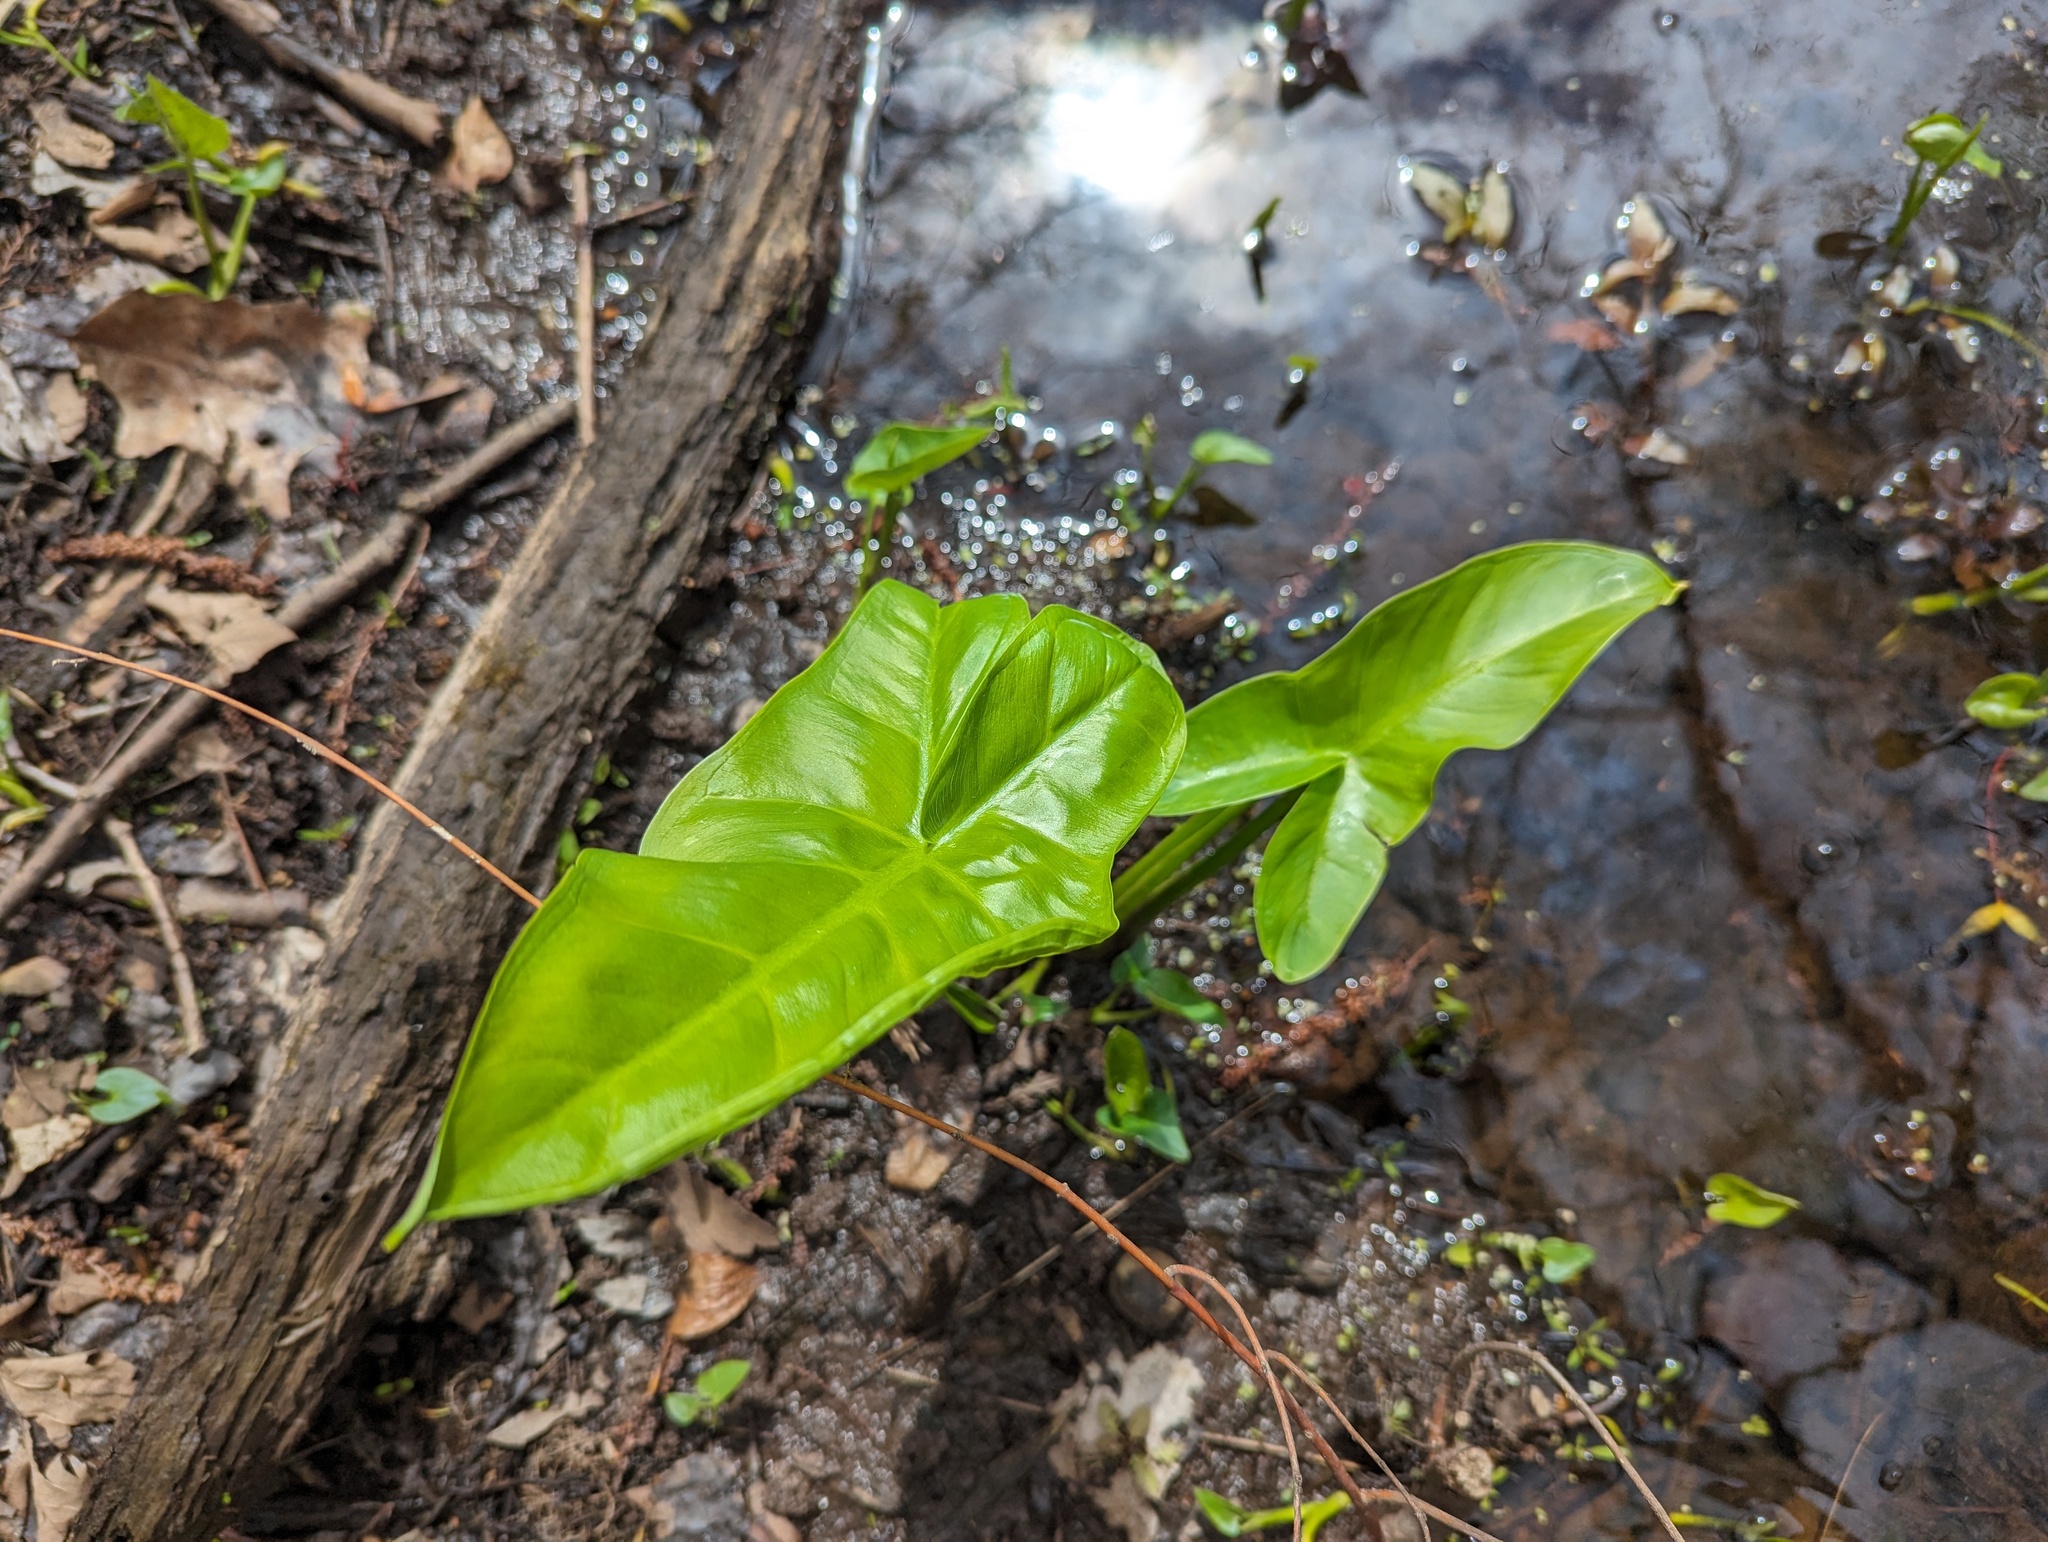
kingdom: Plantae
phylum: Tracheophyta
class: Liliopsida
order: Alismatales
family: Araceae
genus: Peltandra
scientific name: Peltandra virginica
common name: Arrow arum
